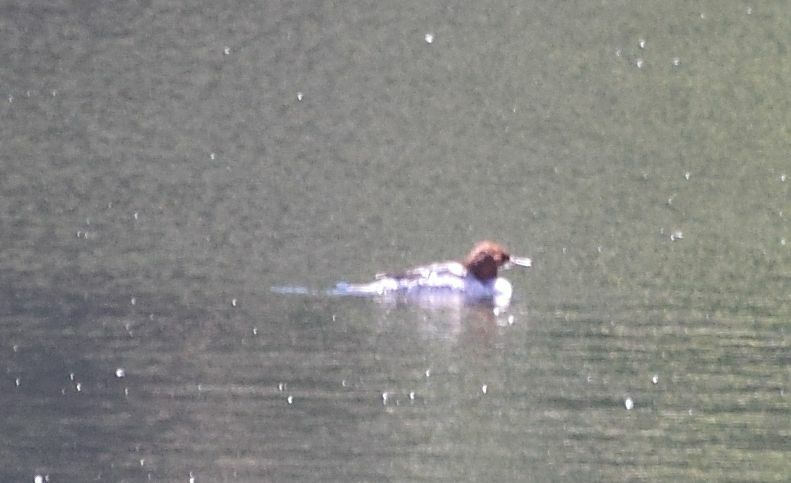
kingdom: Animalia
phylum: Chordata
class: Aves
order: Anseriformes
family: Anatidae
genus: Mergus
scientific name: Mergus merganser
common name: Common merganser
